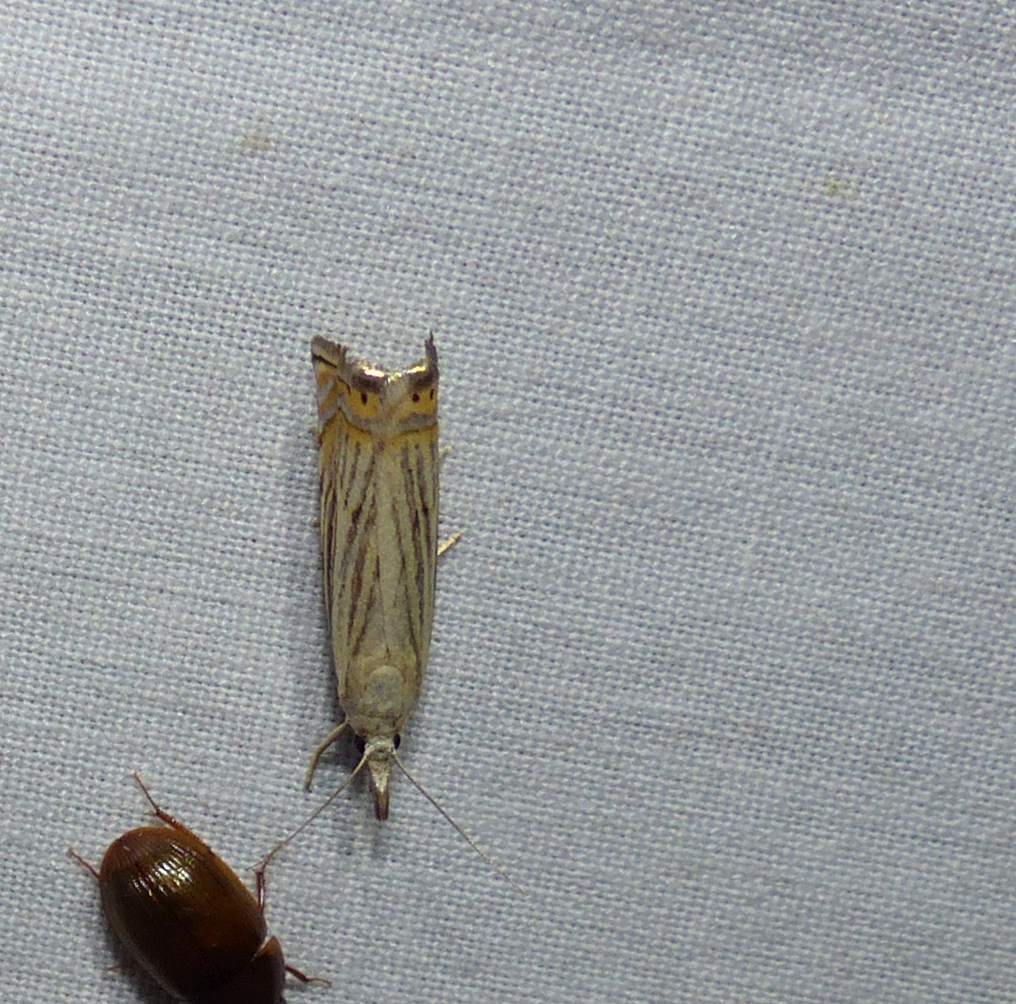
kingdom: Animalia
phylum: Arthropoda
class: Insecta
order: Lepidoptera
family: Crambidae
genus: Chrysoteuchia
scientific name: Chrysoteuchia topiarius
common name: Topiary grass-veneer
